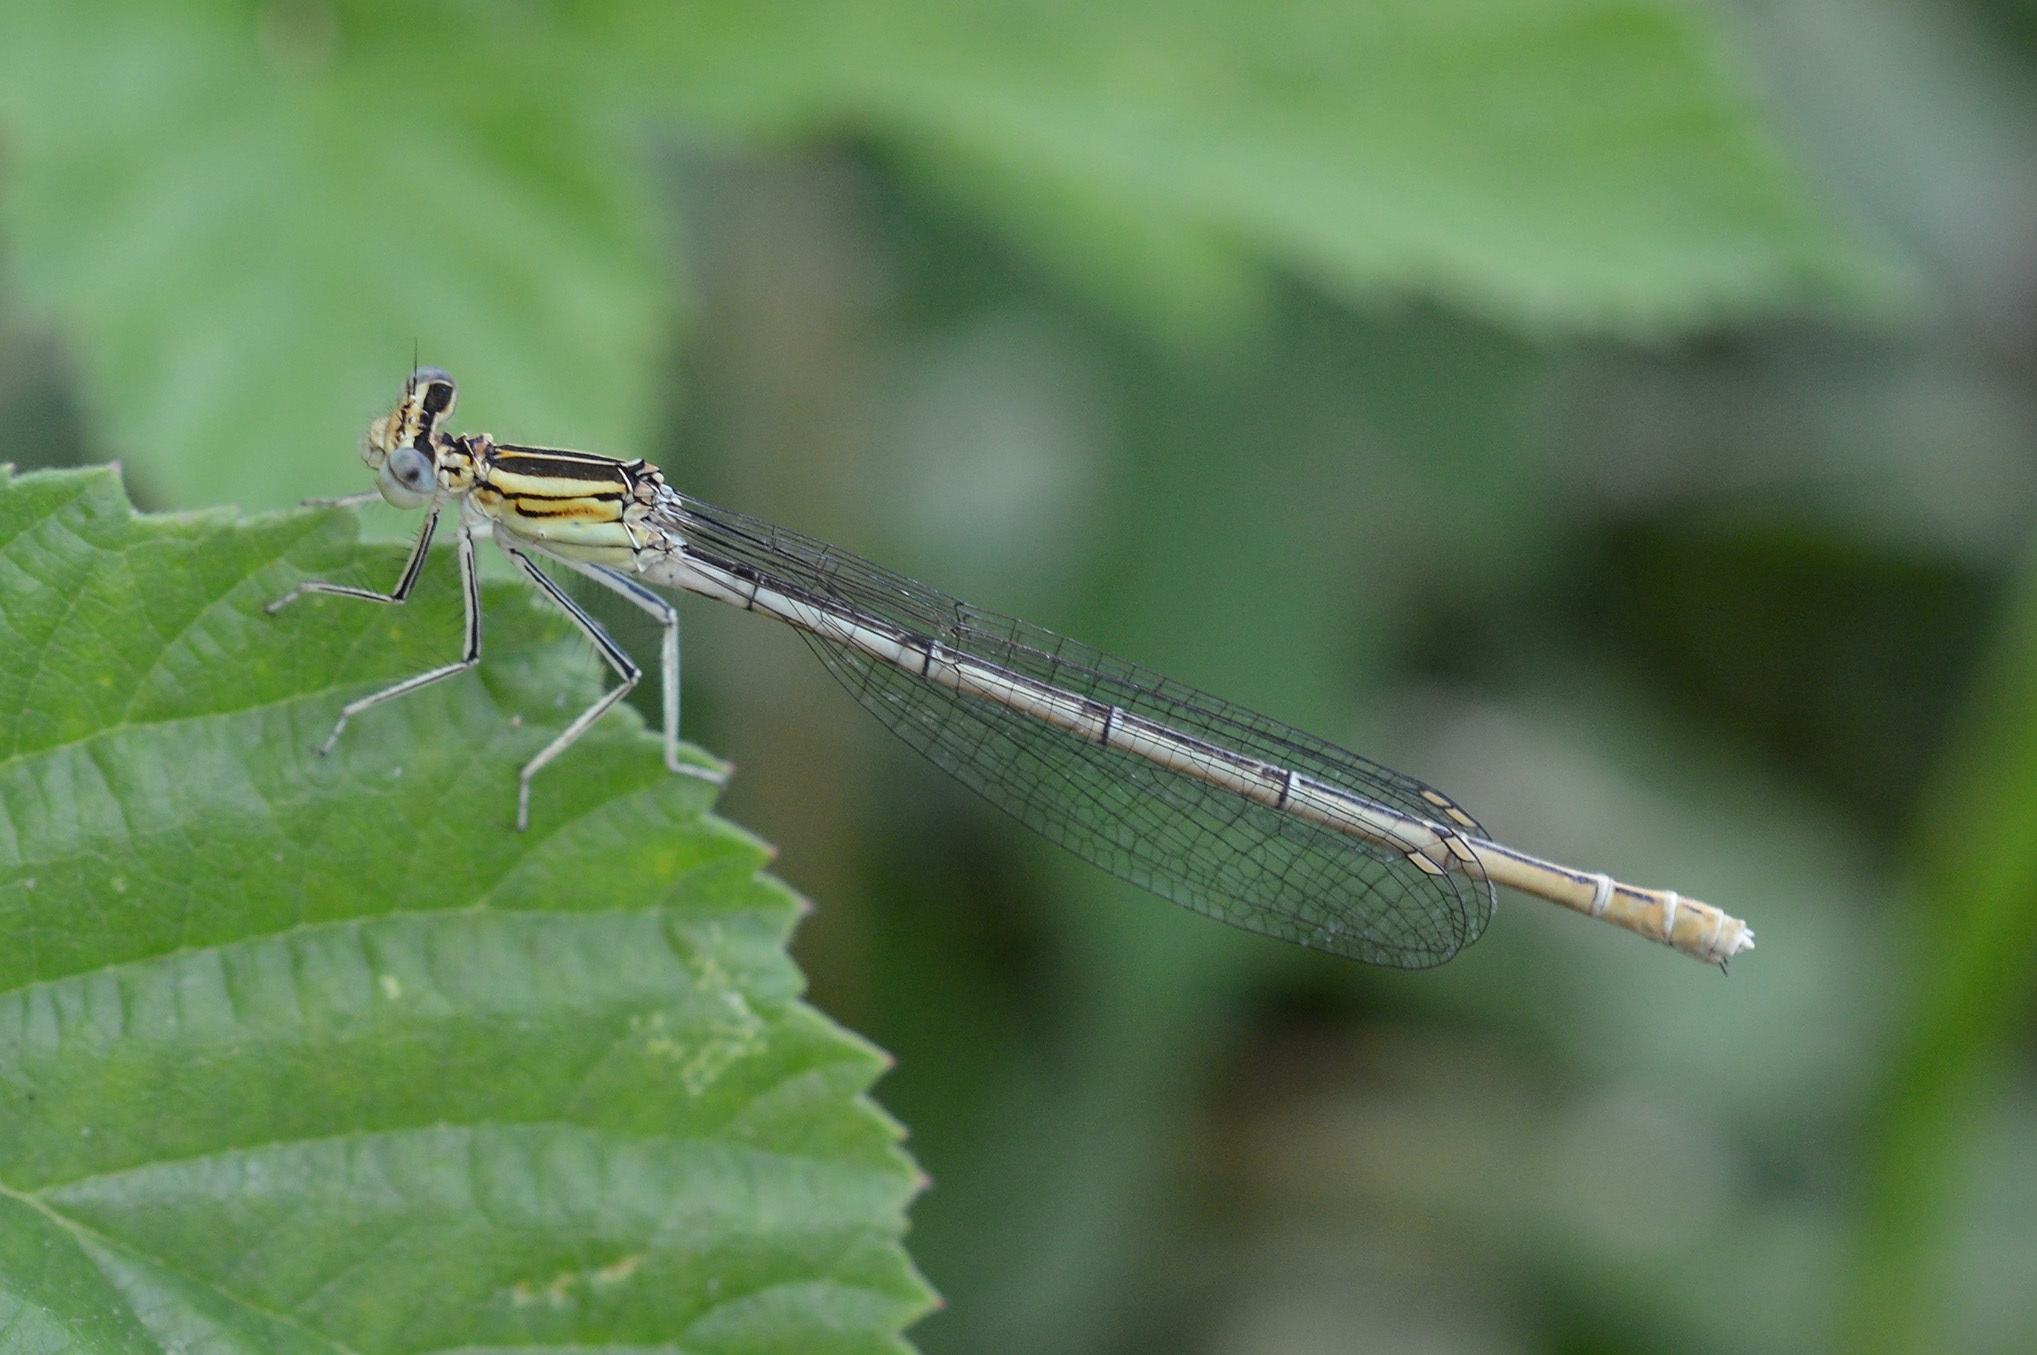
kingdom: Animalia
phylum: Arthropoda
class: Insecta
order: Odonata
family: Platycnemididae
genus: Platycnemis
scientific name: Platycnemis pennipes
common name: White-legged damselfly
